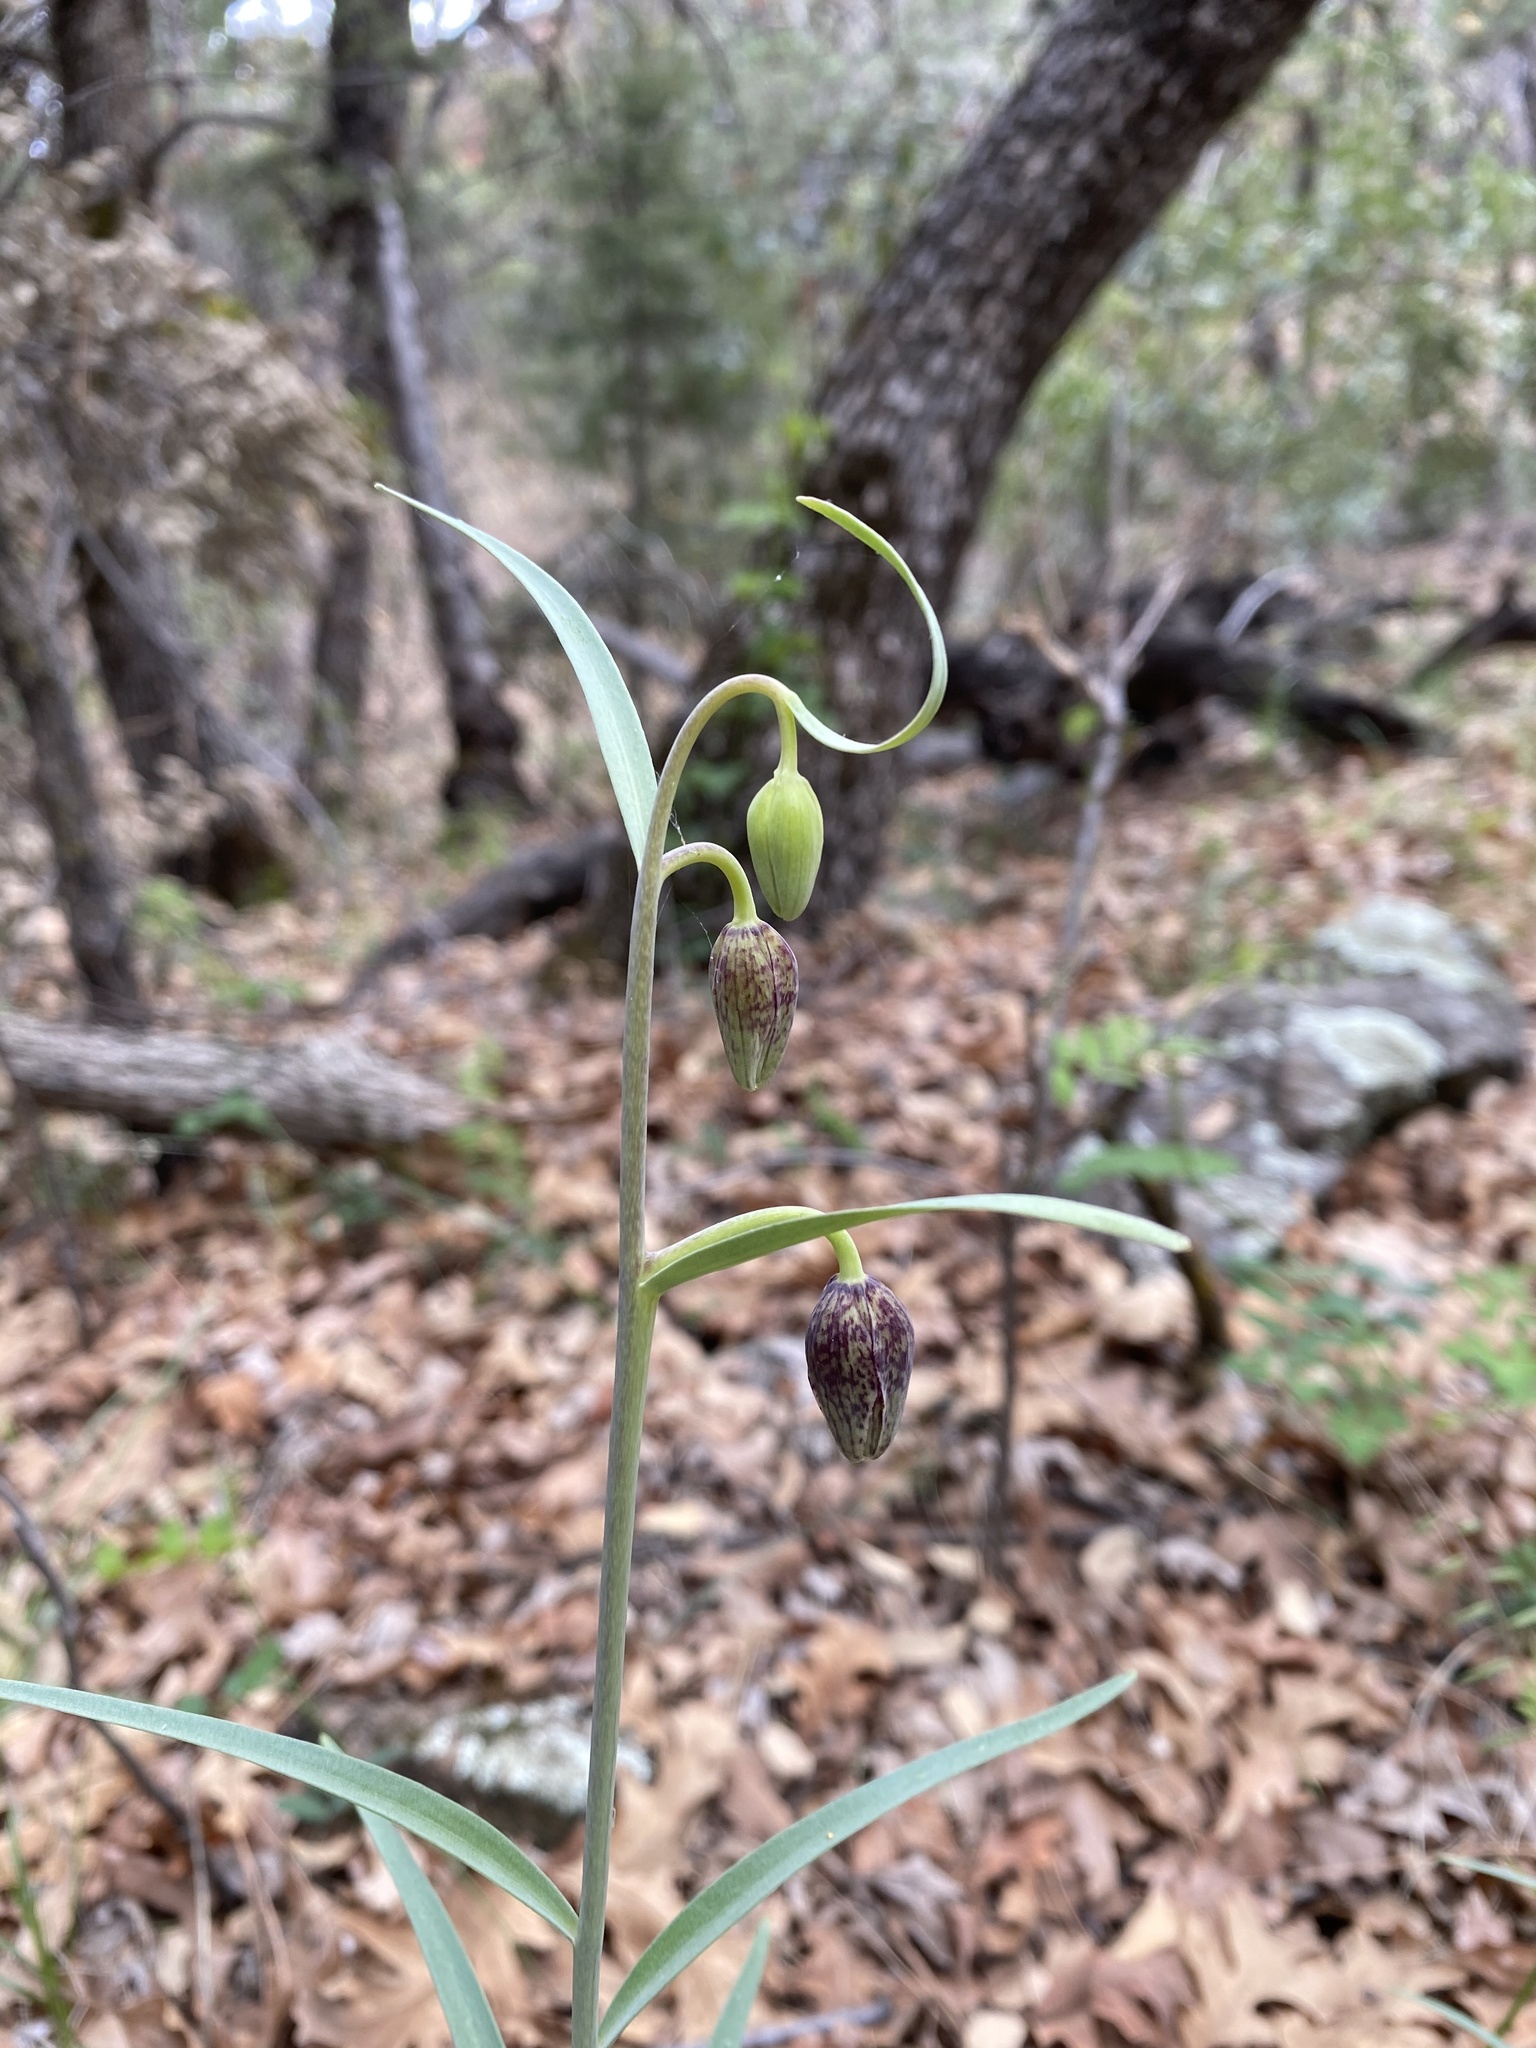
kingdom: Plantae
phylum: Tracheophyta
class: Liliopsida
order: Liliales
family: Liliaceae
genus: Fritillaria
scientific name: Fritillaria atropurpurea
